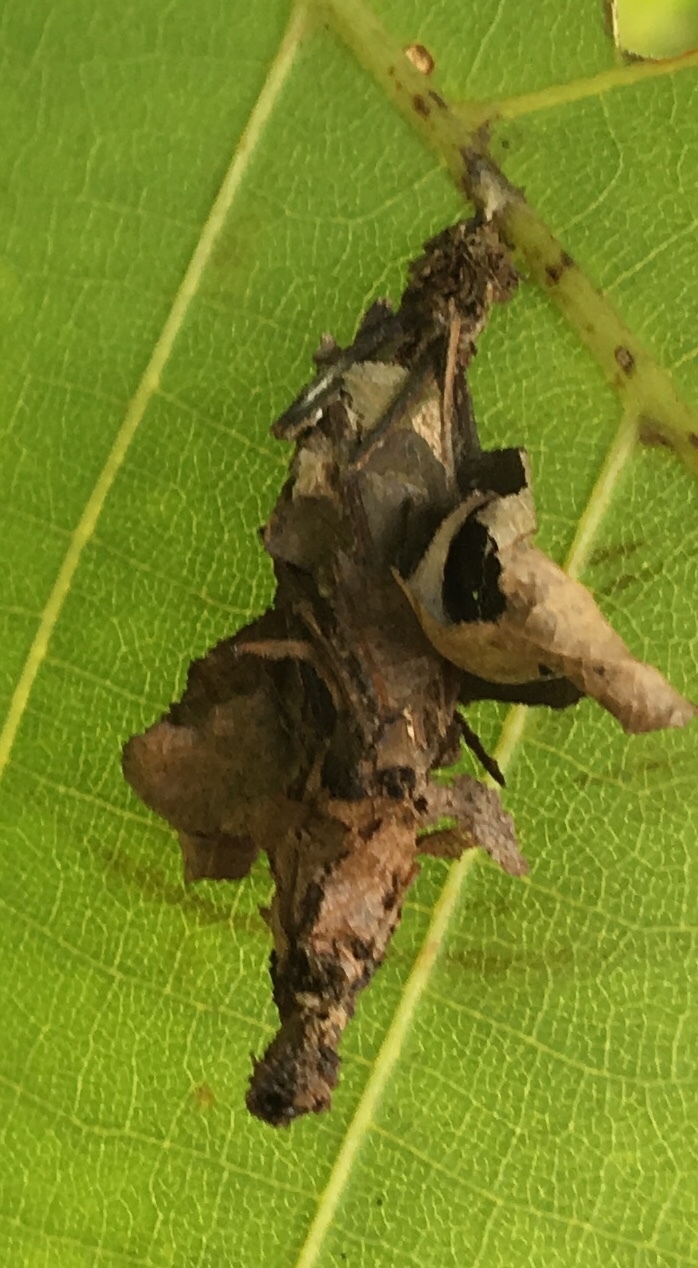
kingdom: Animalia
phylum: Arthropoda
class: Insecta
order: Lepidoptera
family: Psychidae
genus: Thyridopteryx
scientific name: Thyridopteryx ephemeraeformis
